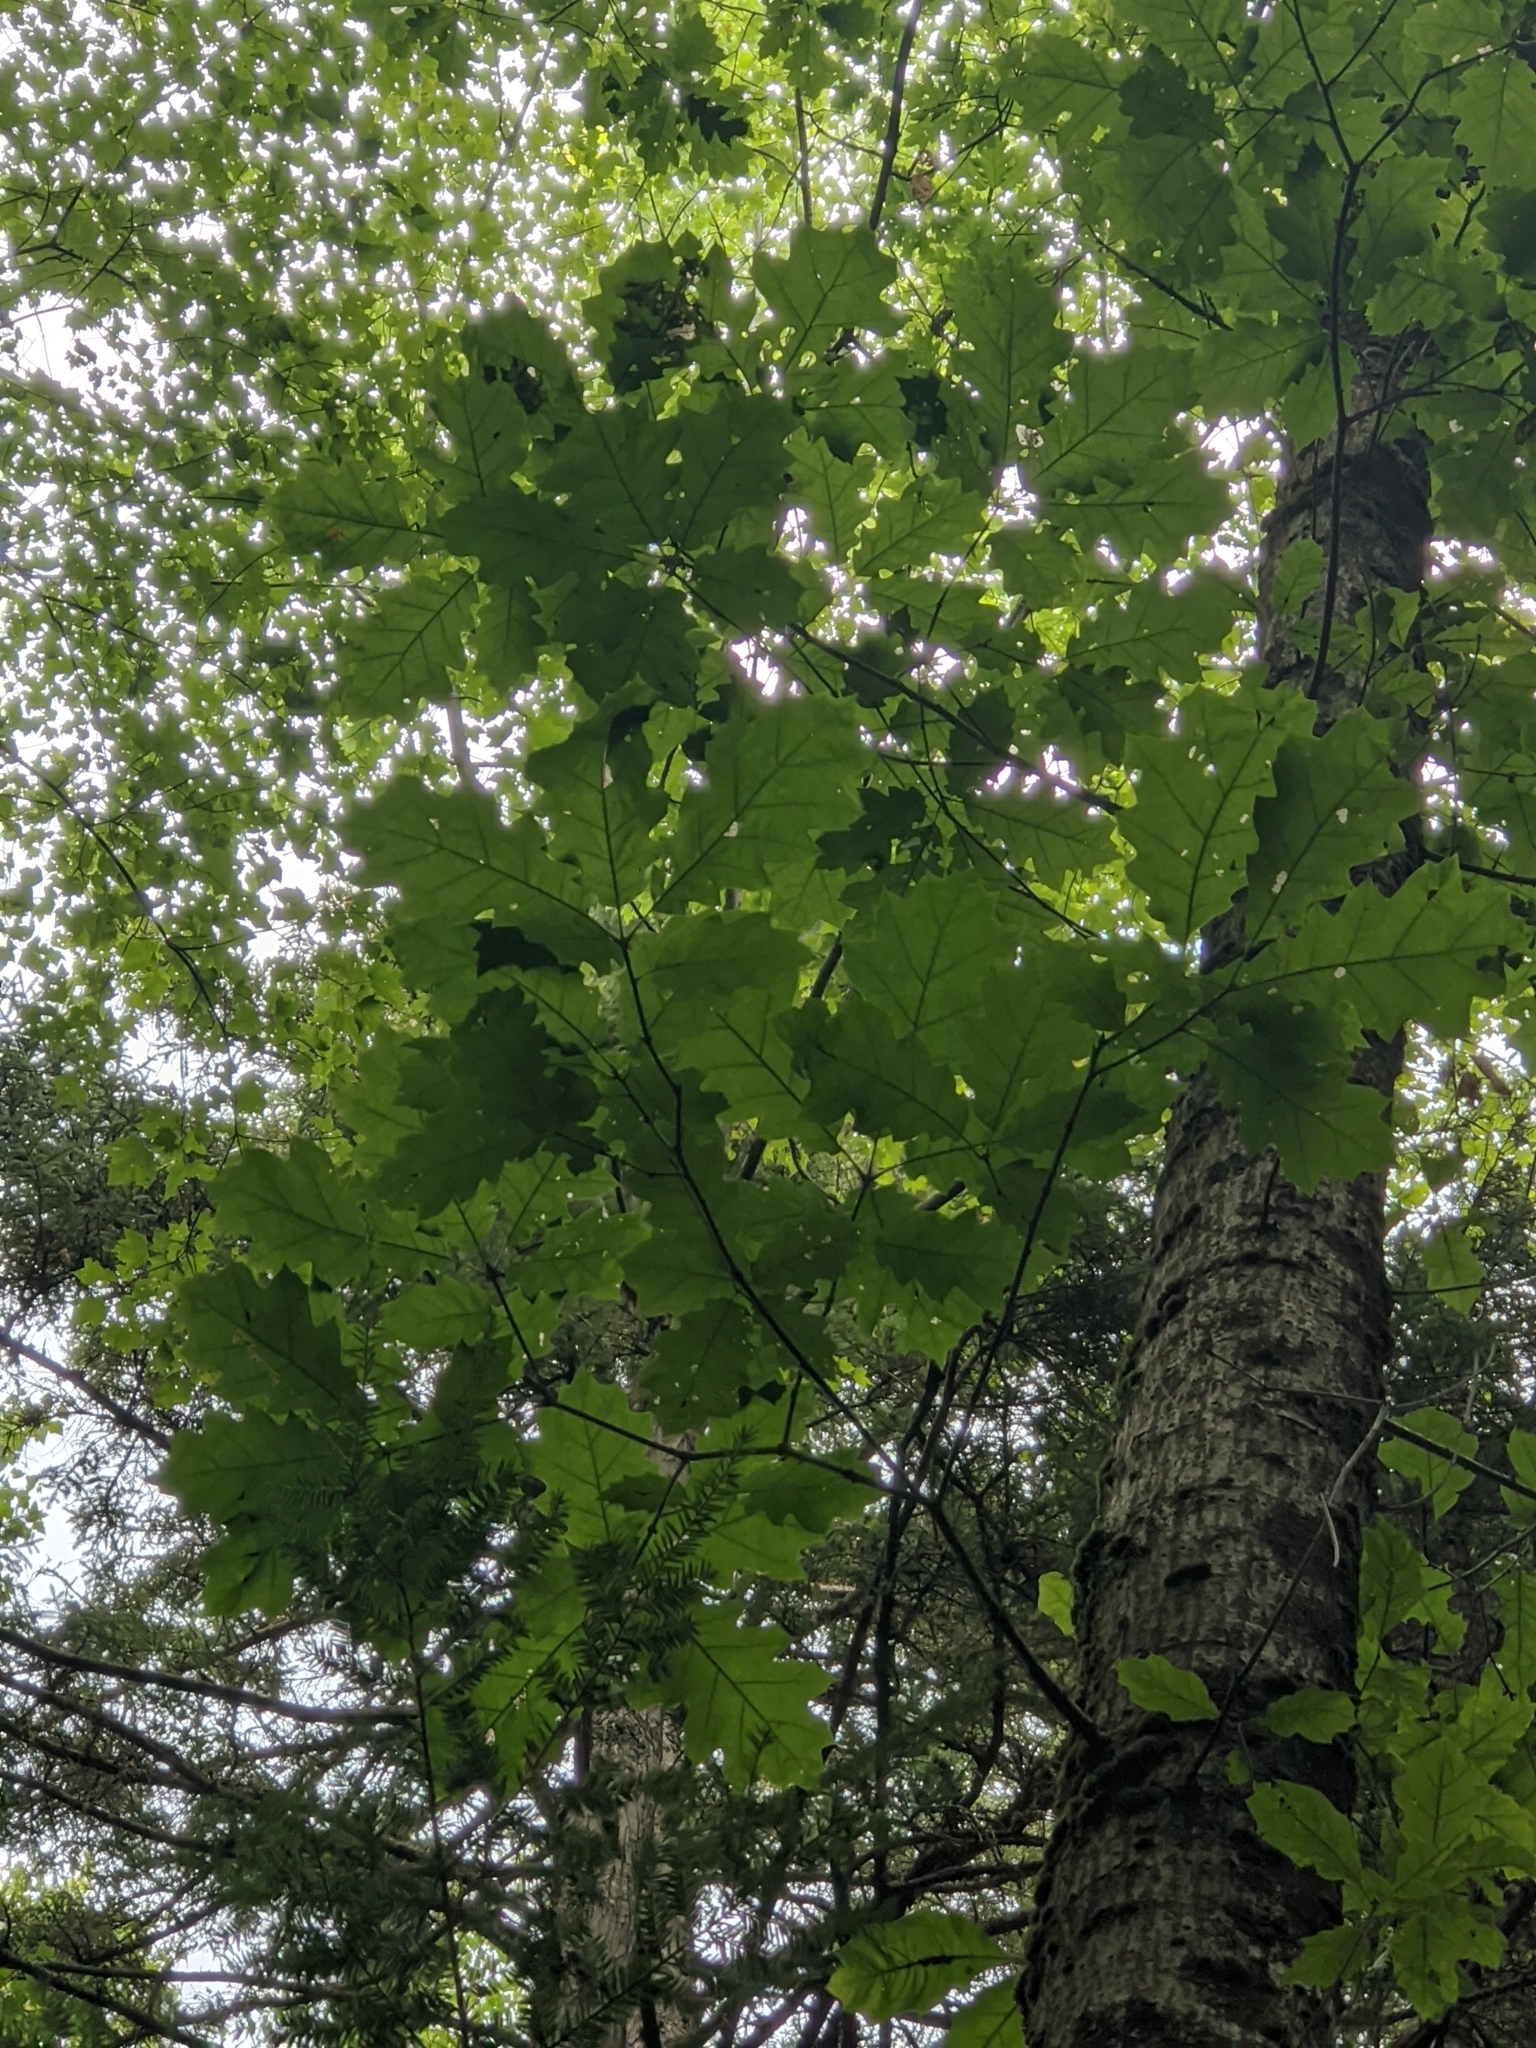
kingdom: Plantae
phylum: Tracheophyta
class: Magnoliopsida
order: Fagales
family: Fagaceae
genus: Quercus
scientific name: Quercus rubra
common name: Red oak
